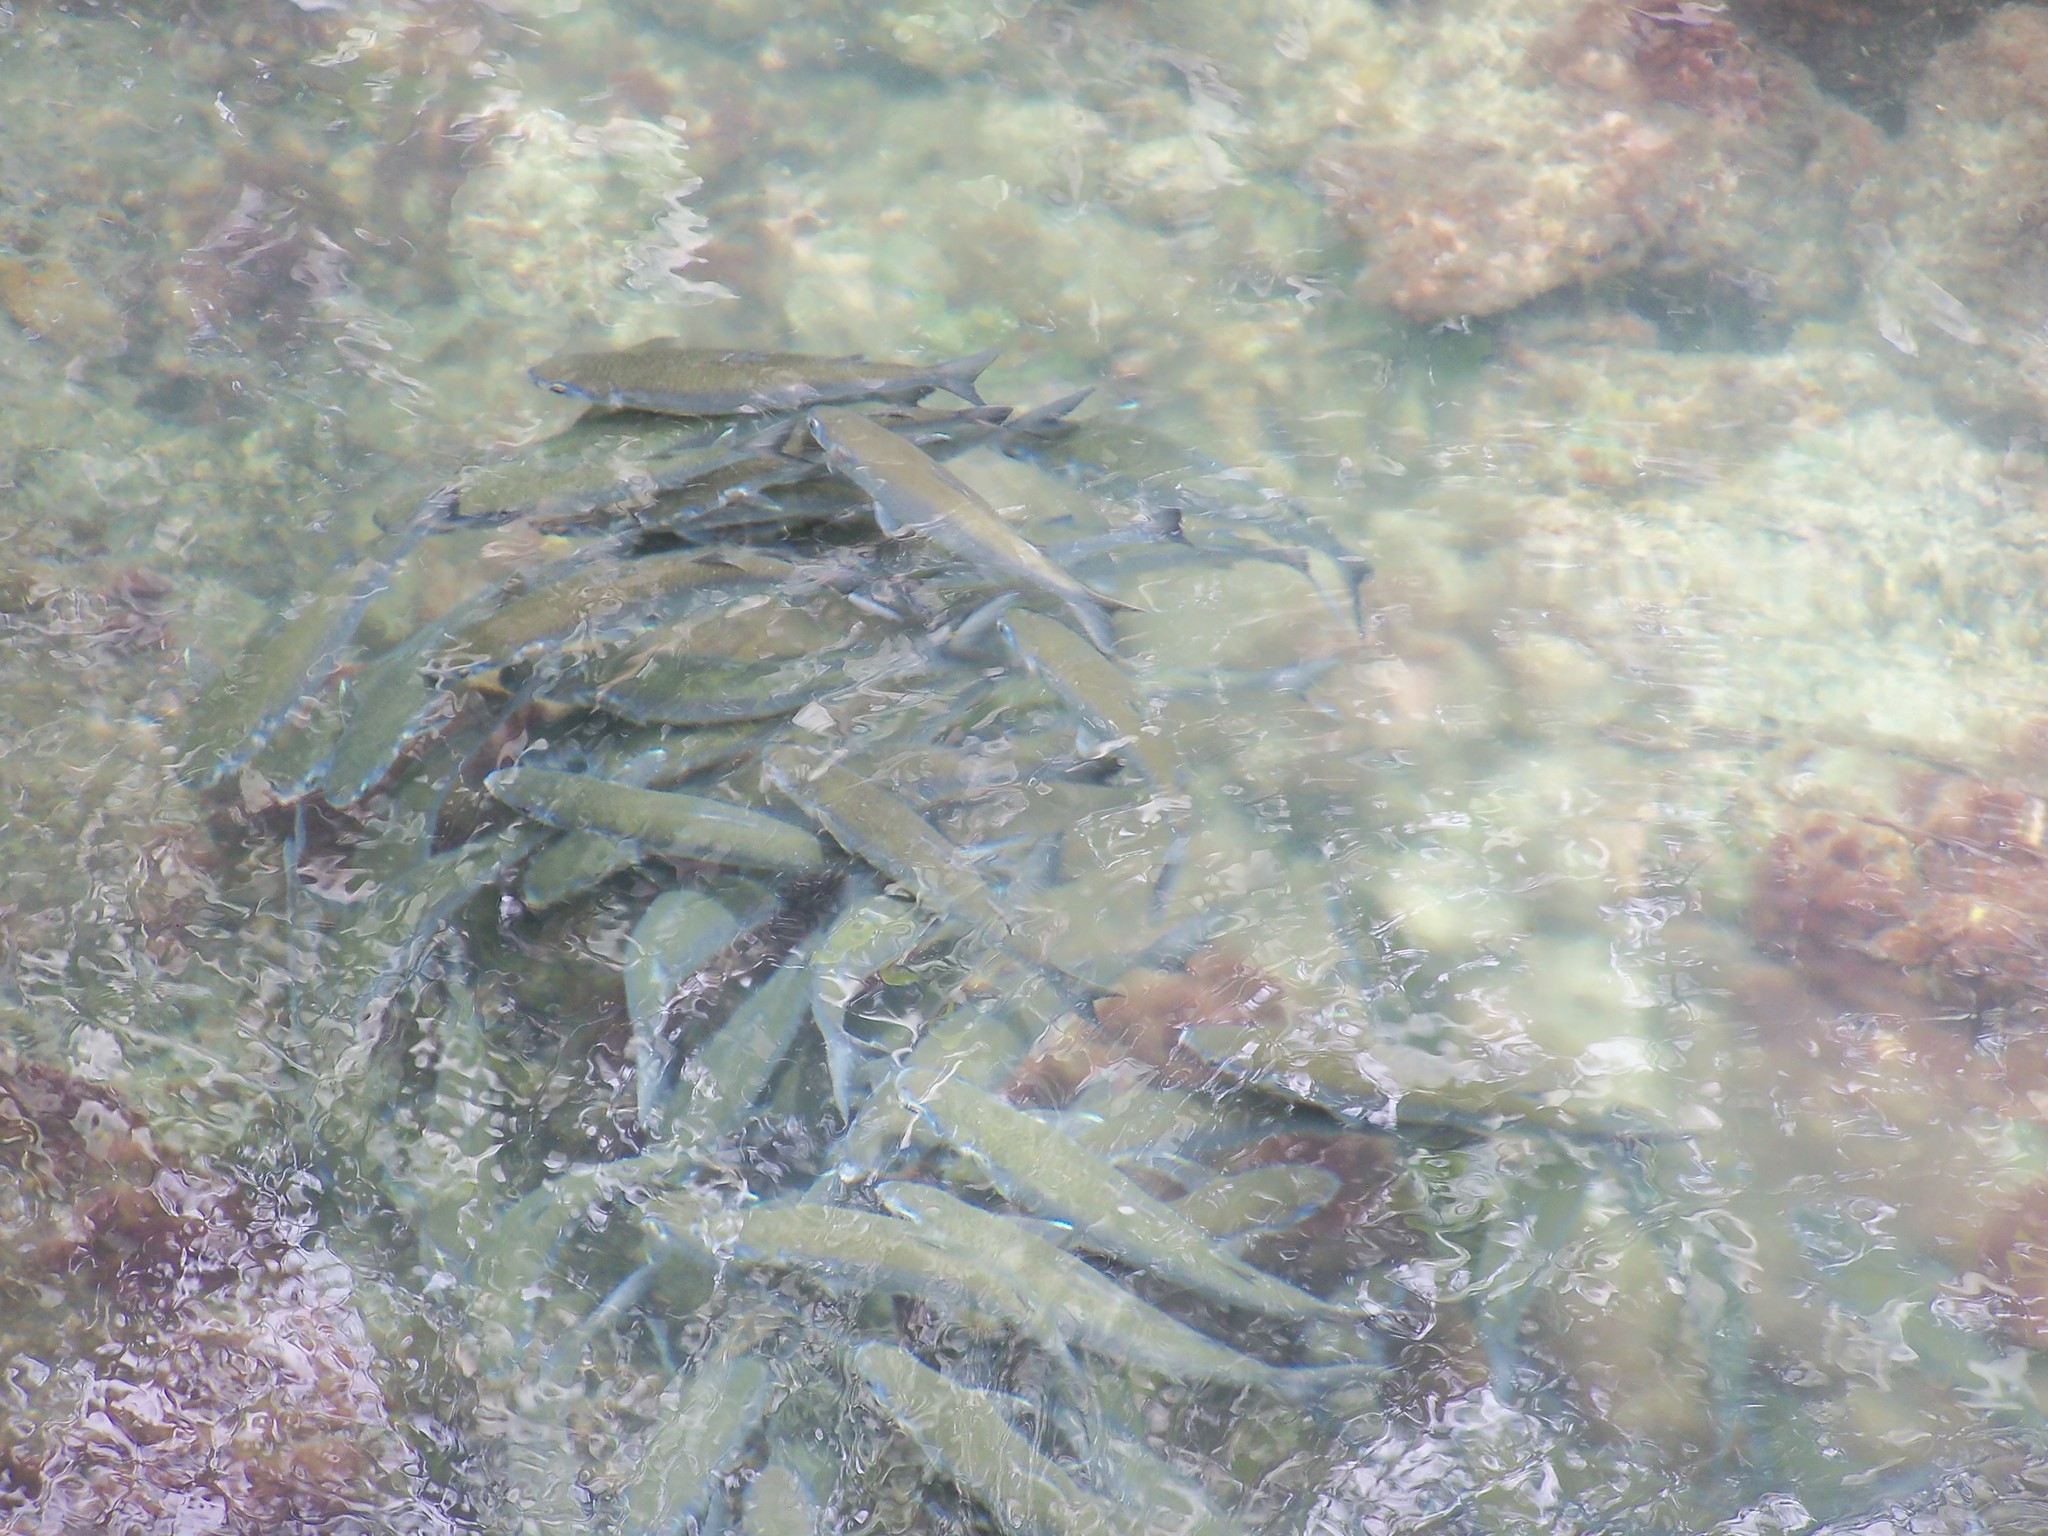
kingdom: Animalia
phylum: Chordata
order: Mugiliformes
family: Mugilidae
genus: Mugil
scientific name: Mugil cephalus
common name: Grey mullet
